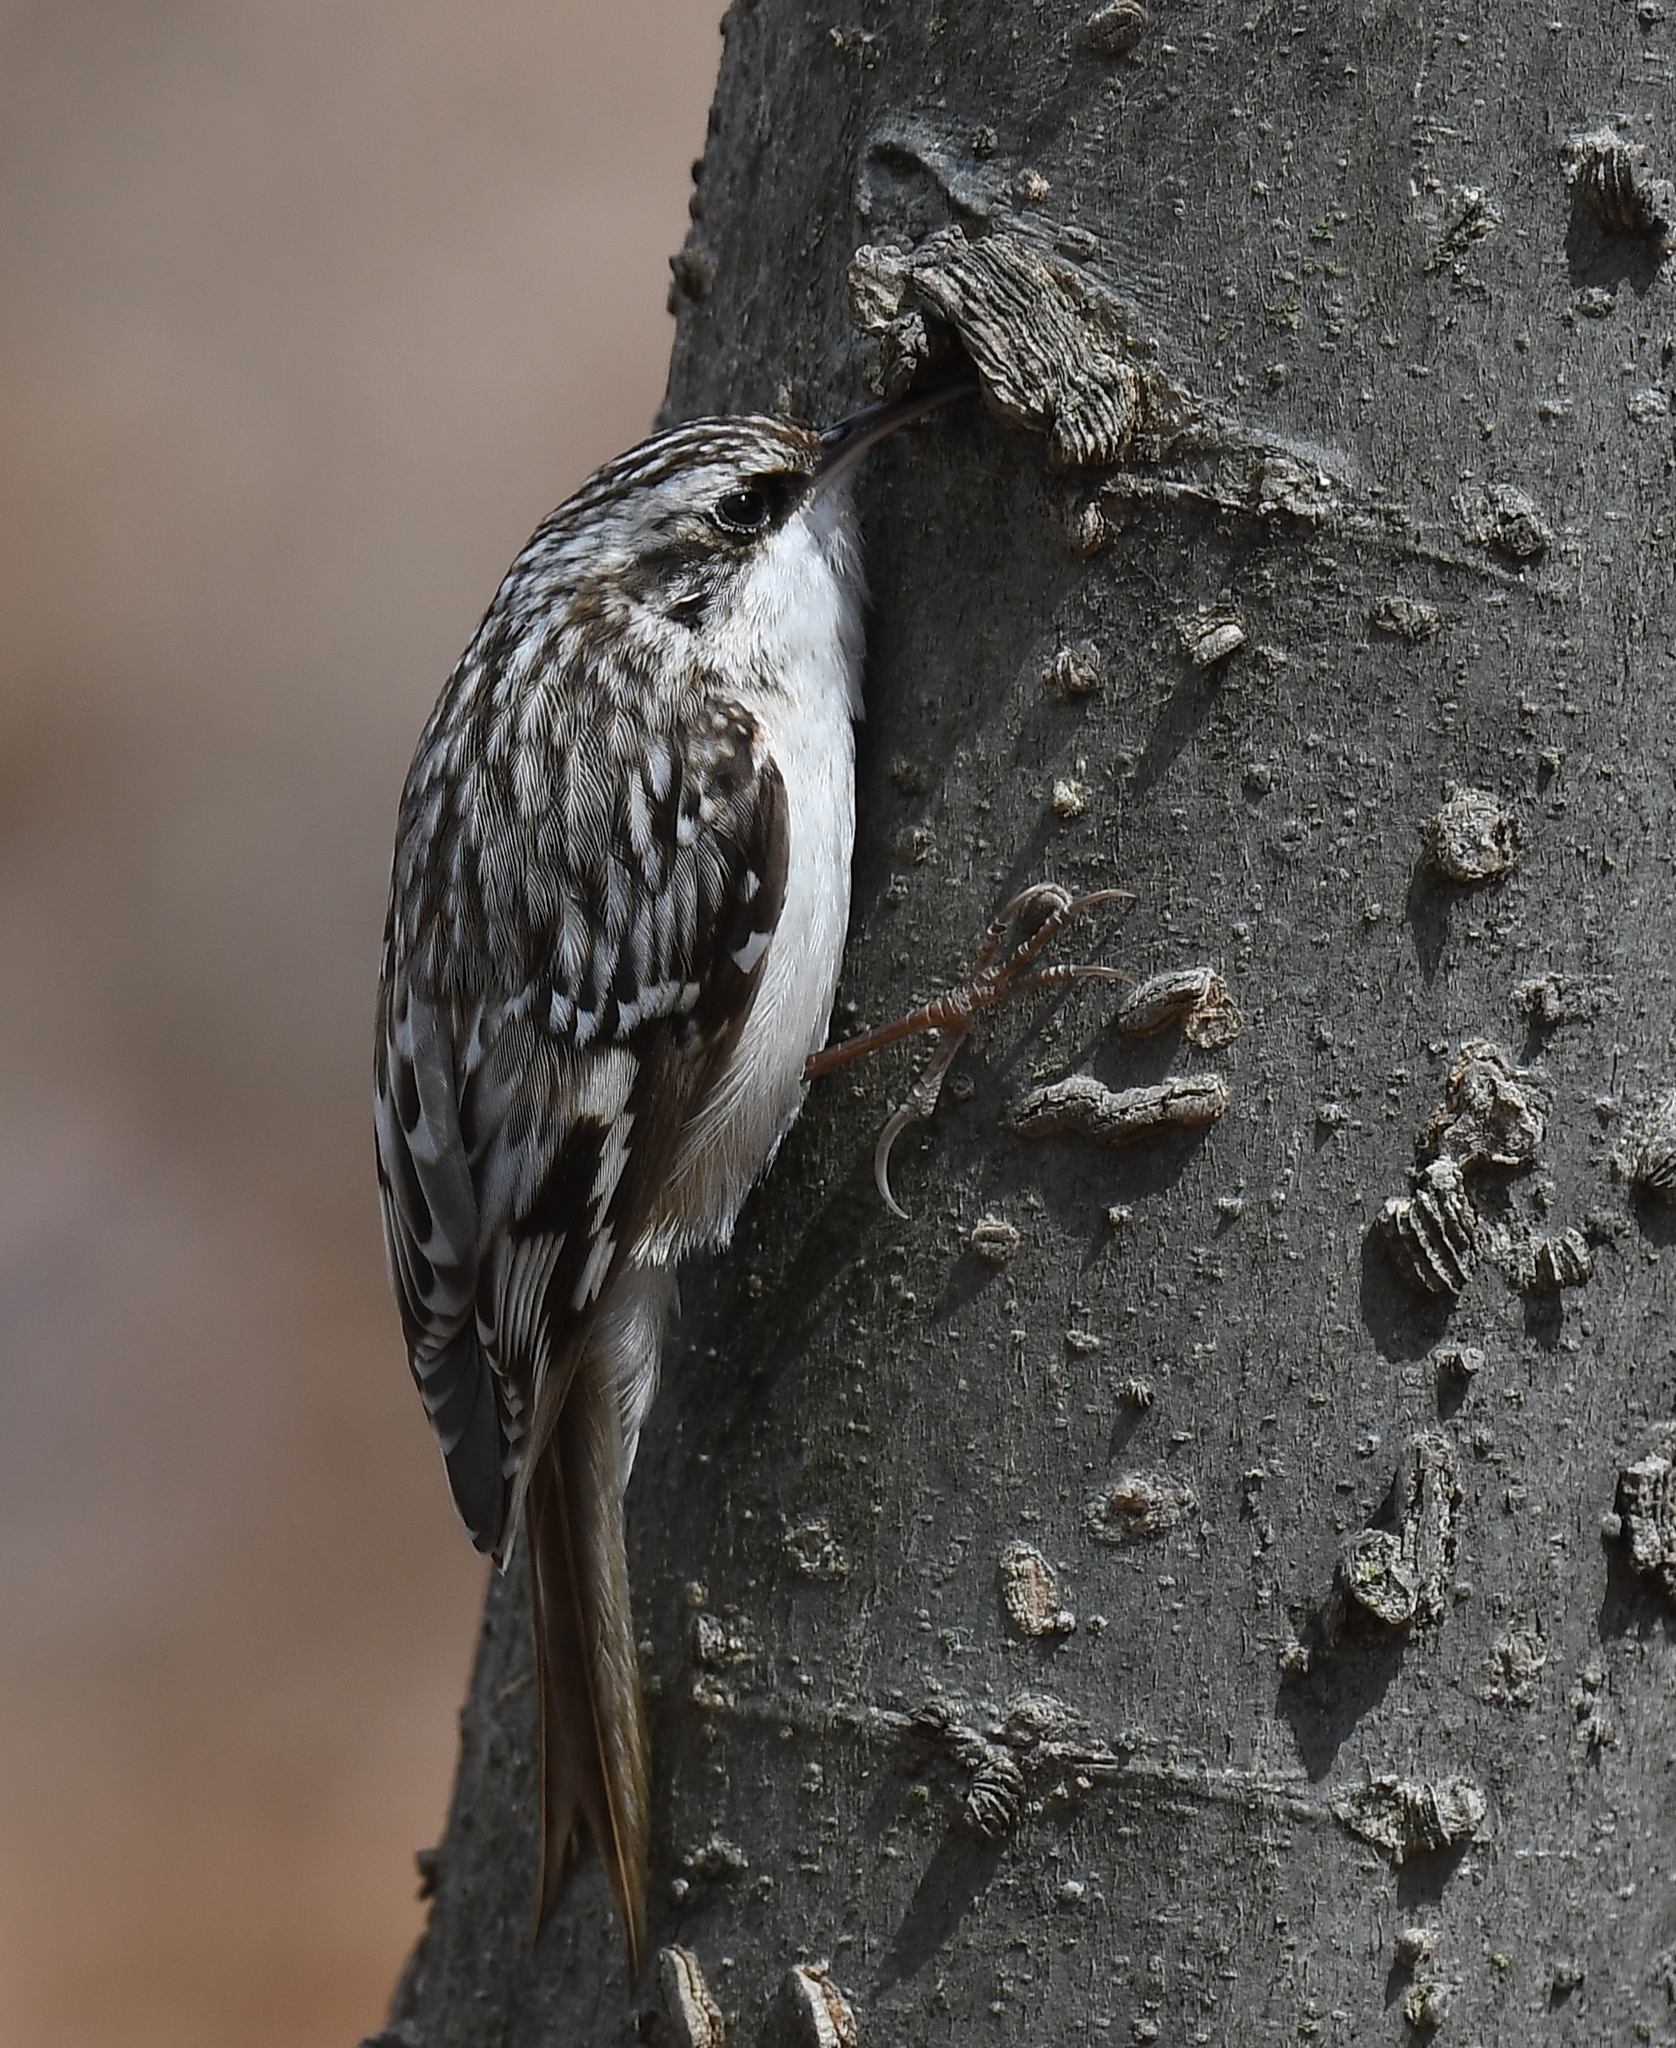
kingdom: Animalia
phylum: Chordata
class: Aves
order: Passeriformes
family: Certhiidae
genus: Certhia
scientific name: Certhia americana
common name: Brown creeper
